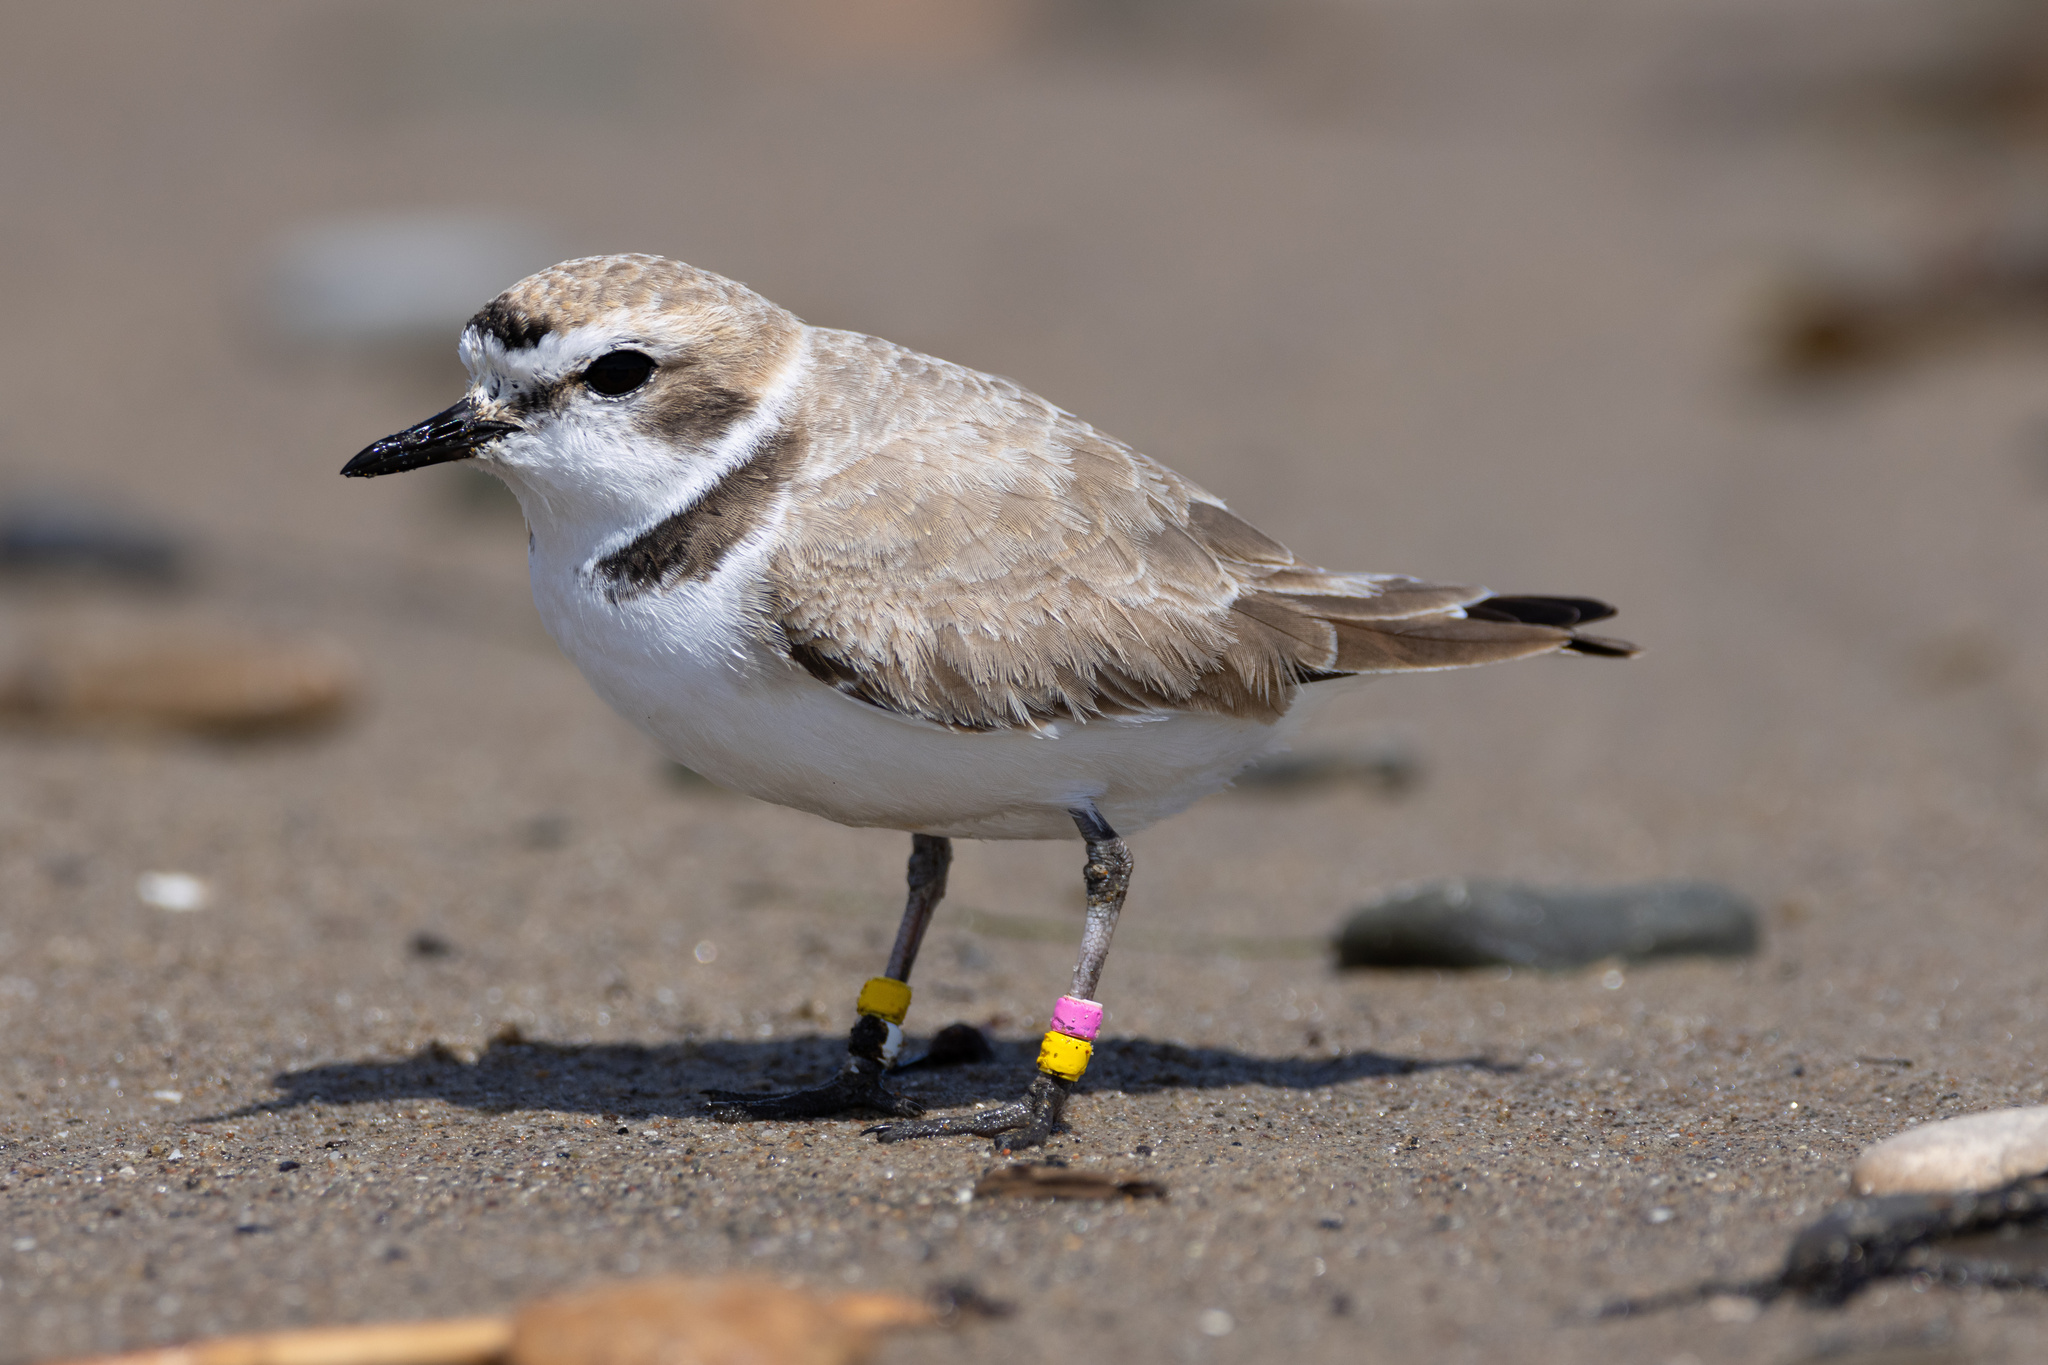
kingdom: Animalia
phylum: Chordata
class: Aves
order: Charadriiformes
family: Charadriidae
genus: Anarhynchus
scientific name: Anarhynchus
